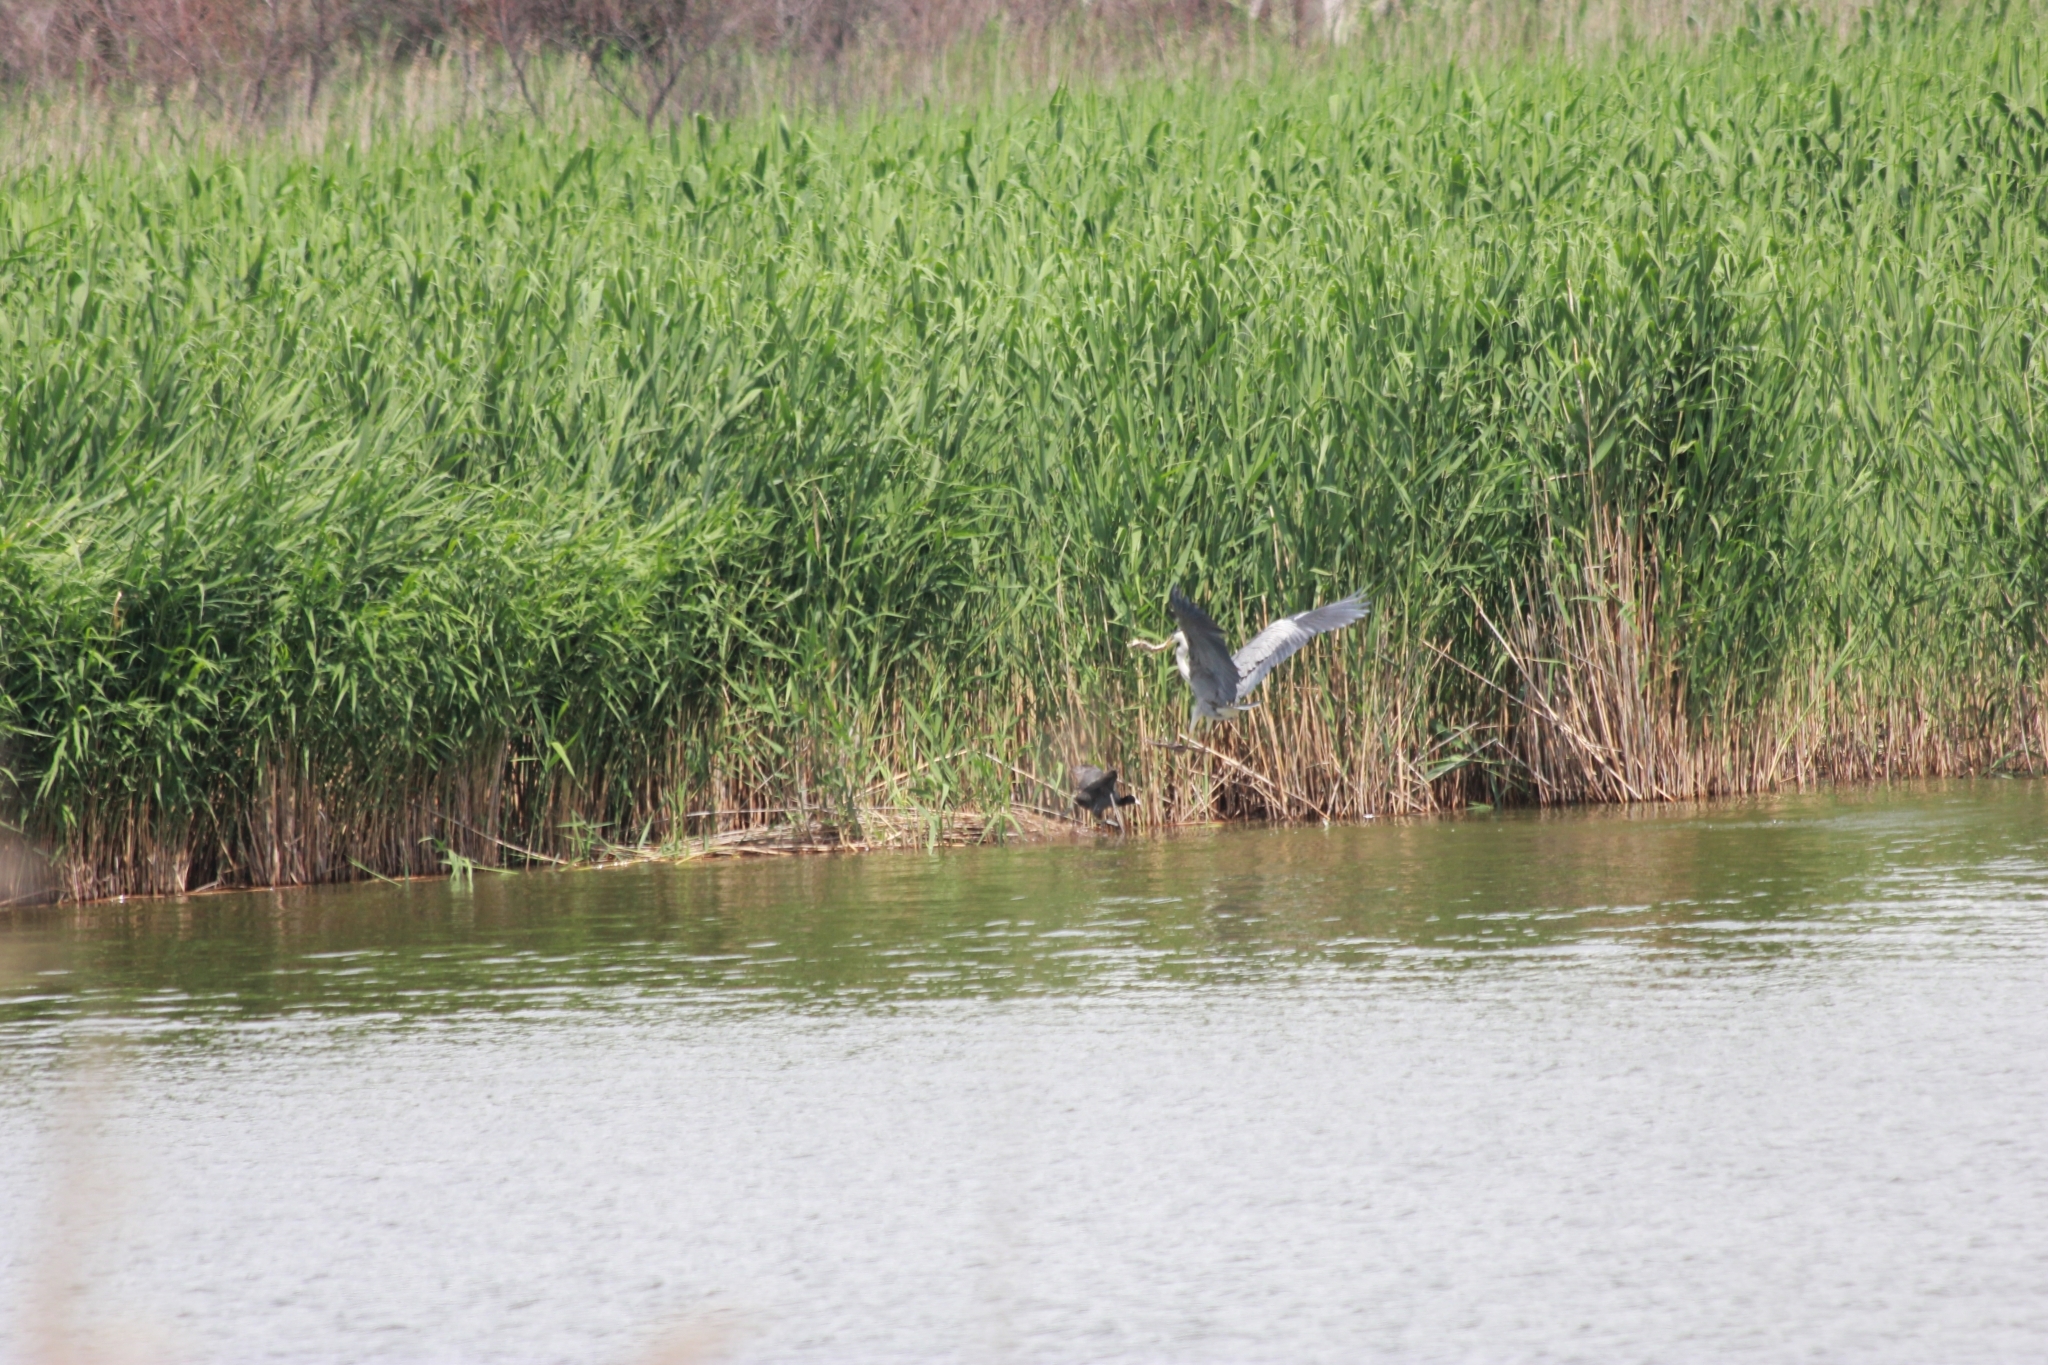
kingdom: Animalia
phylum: Chordata
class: Aves
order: Pelecaniformes
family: Ardeidae
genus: Ardea
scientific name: Ardea cinerea
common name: Grey heron
